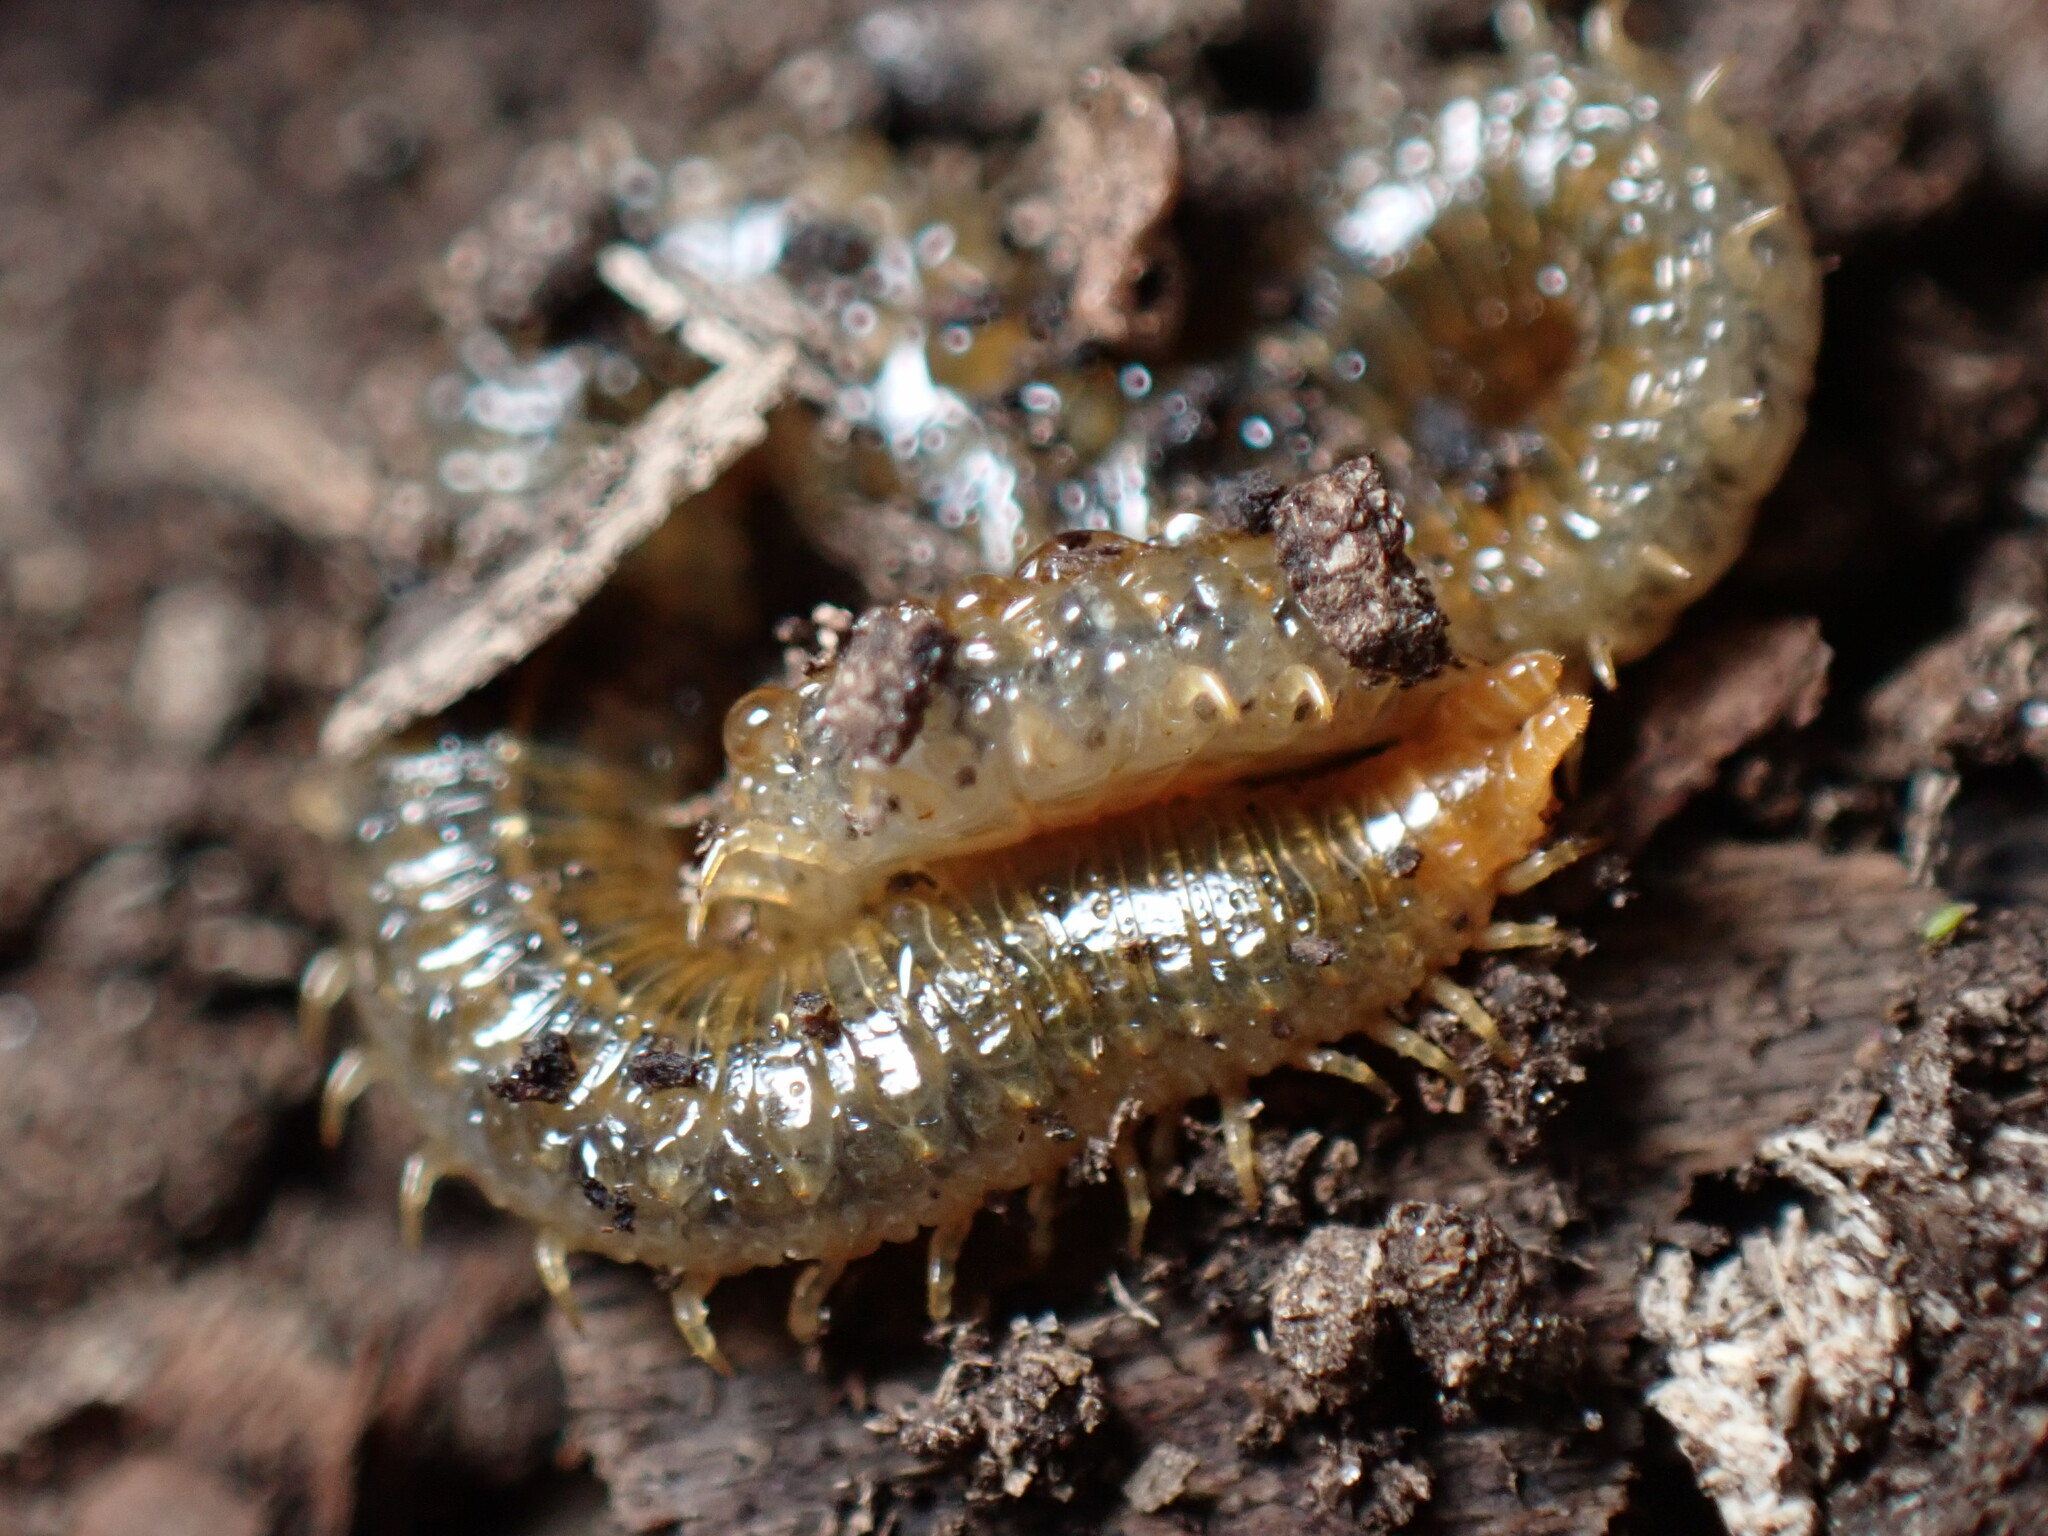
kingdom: Animalia
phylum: Arthropoda
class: Chilopoda
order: Geophilomorpha
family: Dignathodontidae
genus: Henia
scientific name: Henia vesuviana
